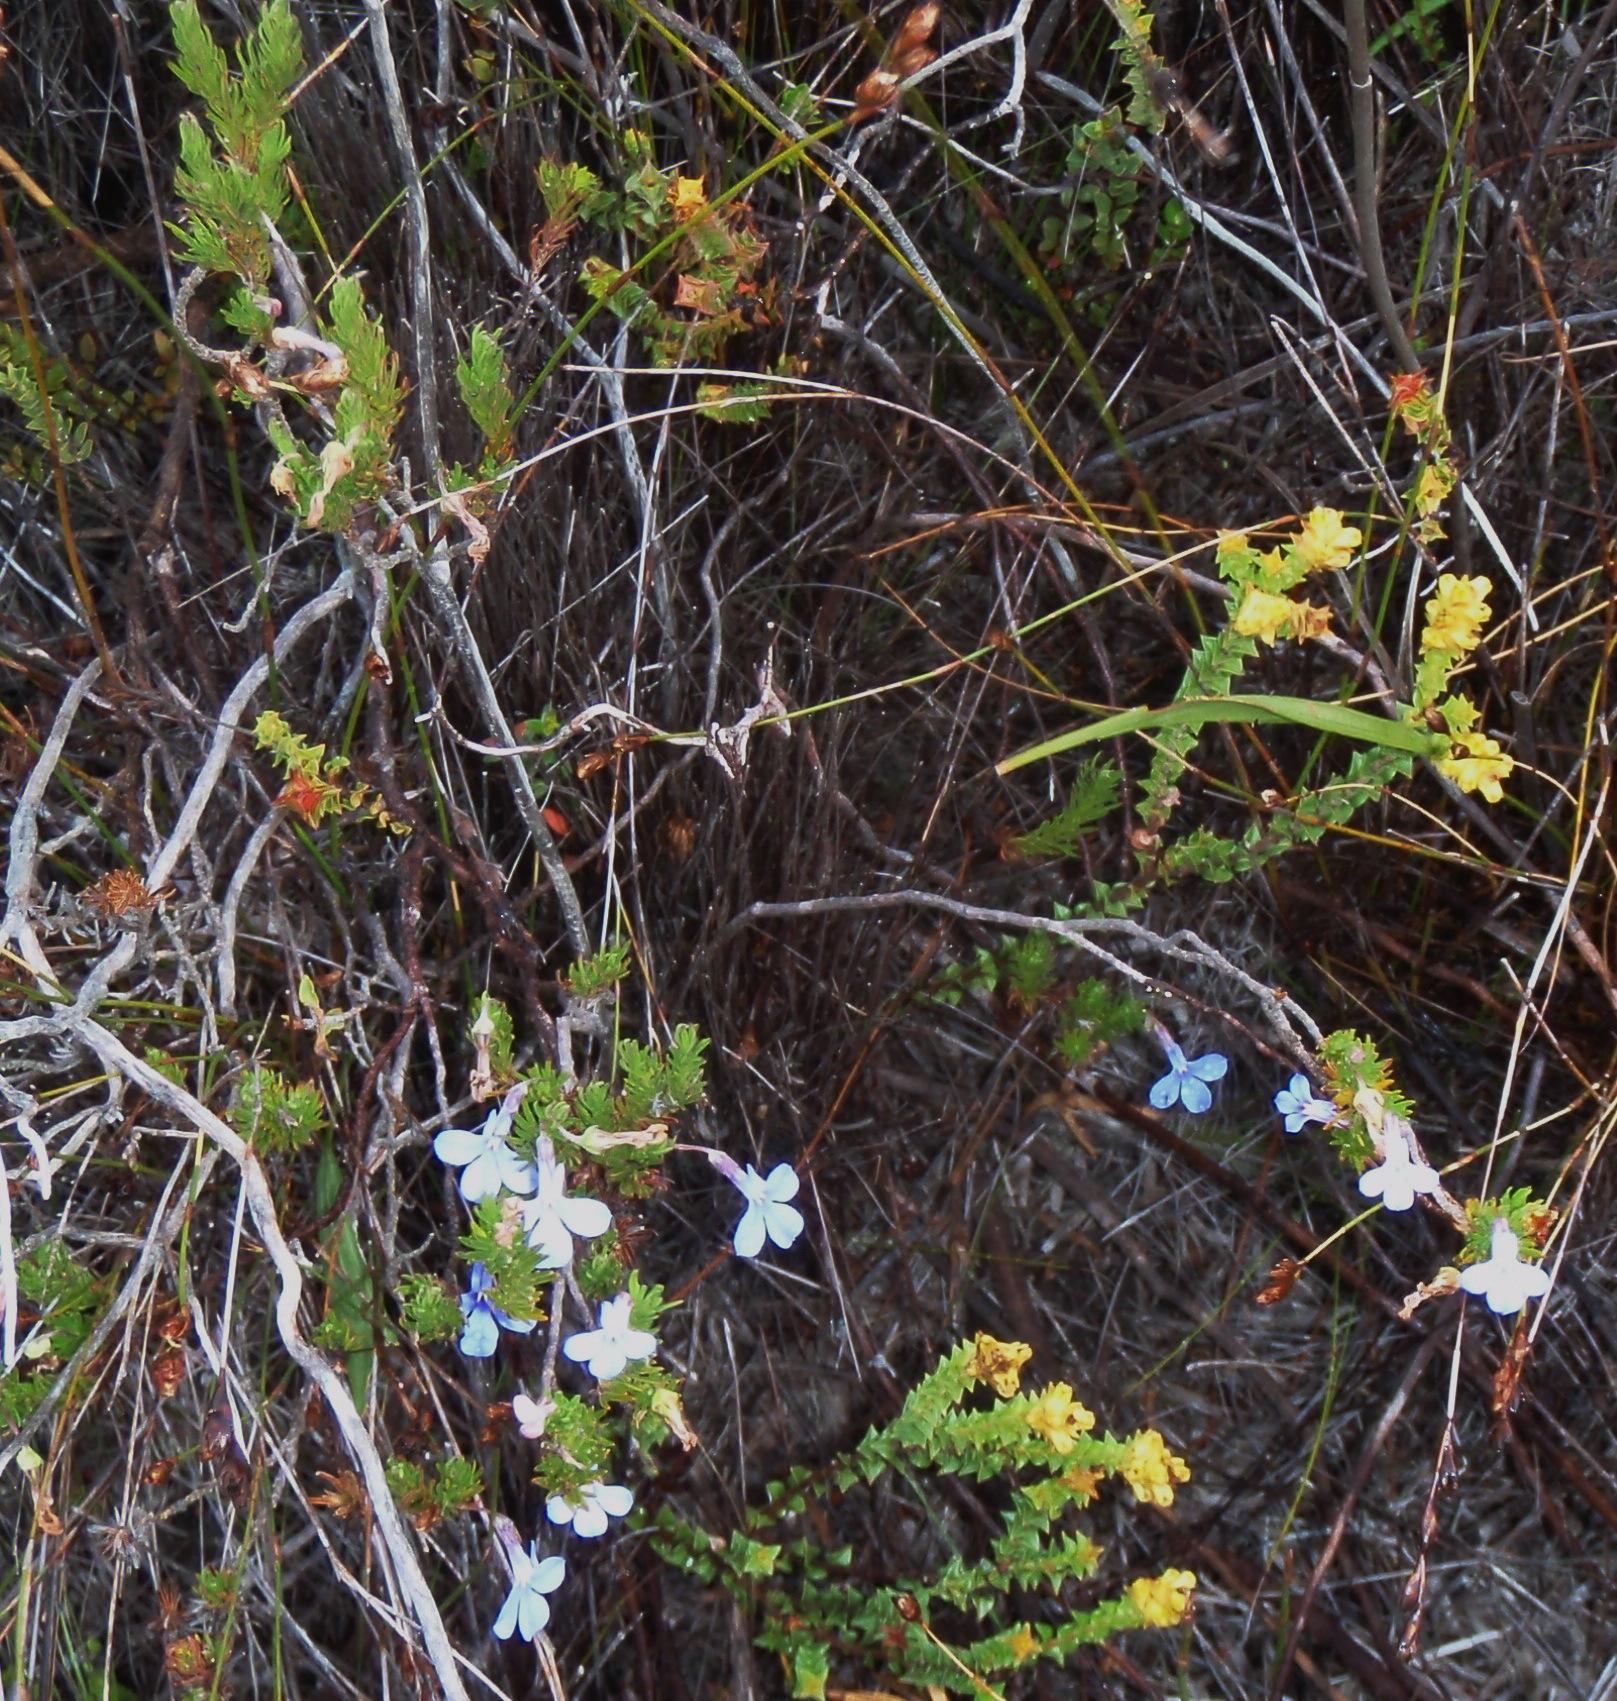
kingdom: Plantae
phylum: Tracheophyta
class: Magnoliopsida
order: Asterales
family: Campanulaceae
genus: Lobelia
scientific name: Lobelia pinifolia
